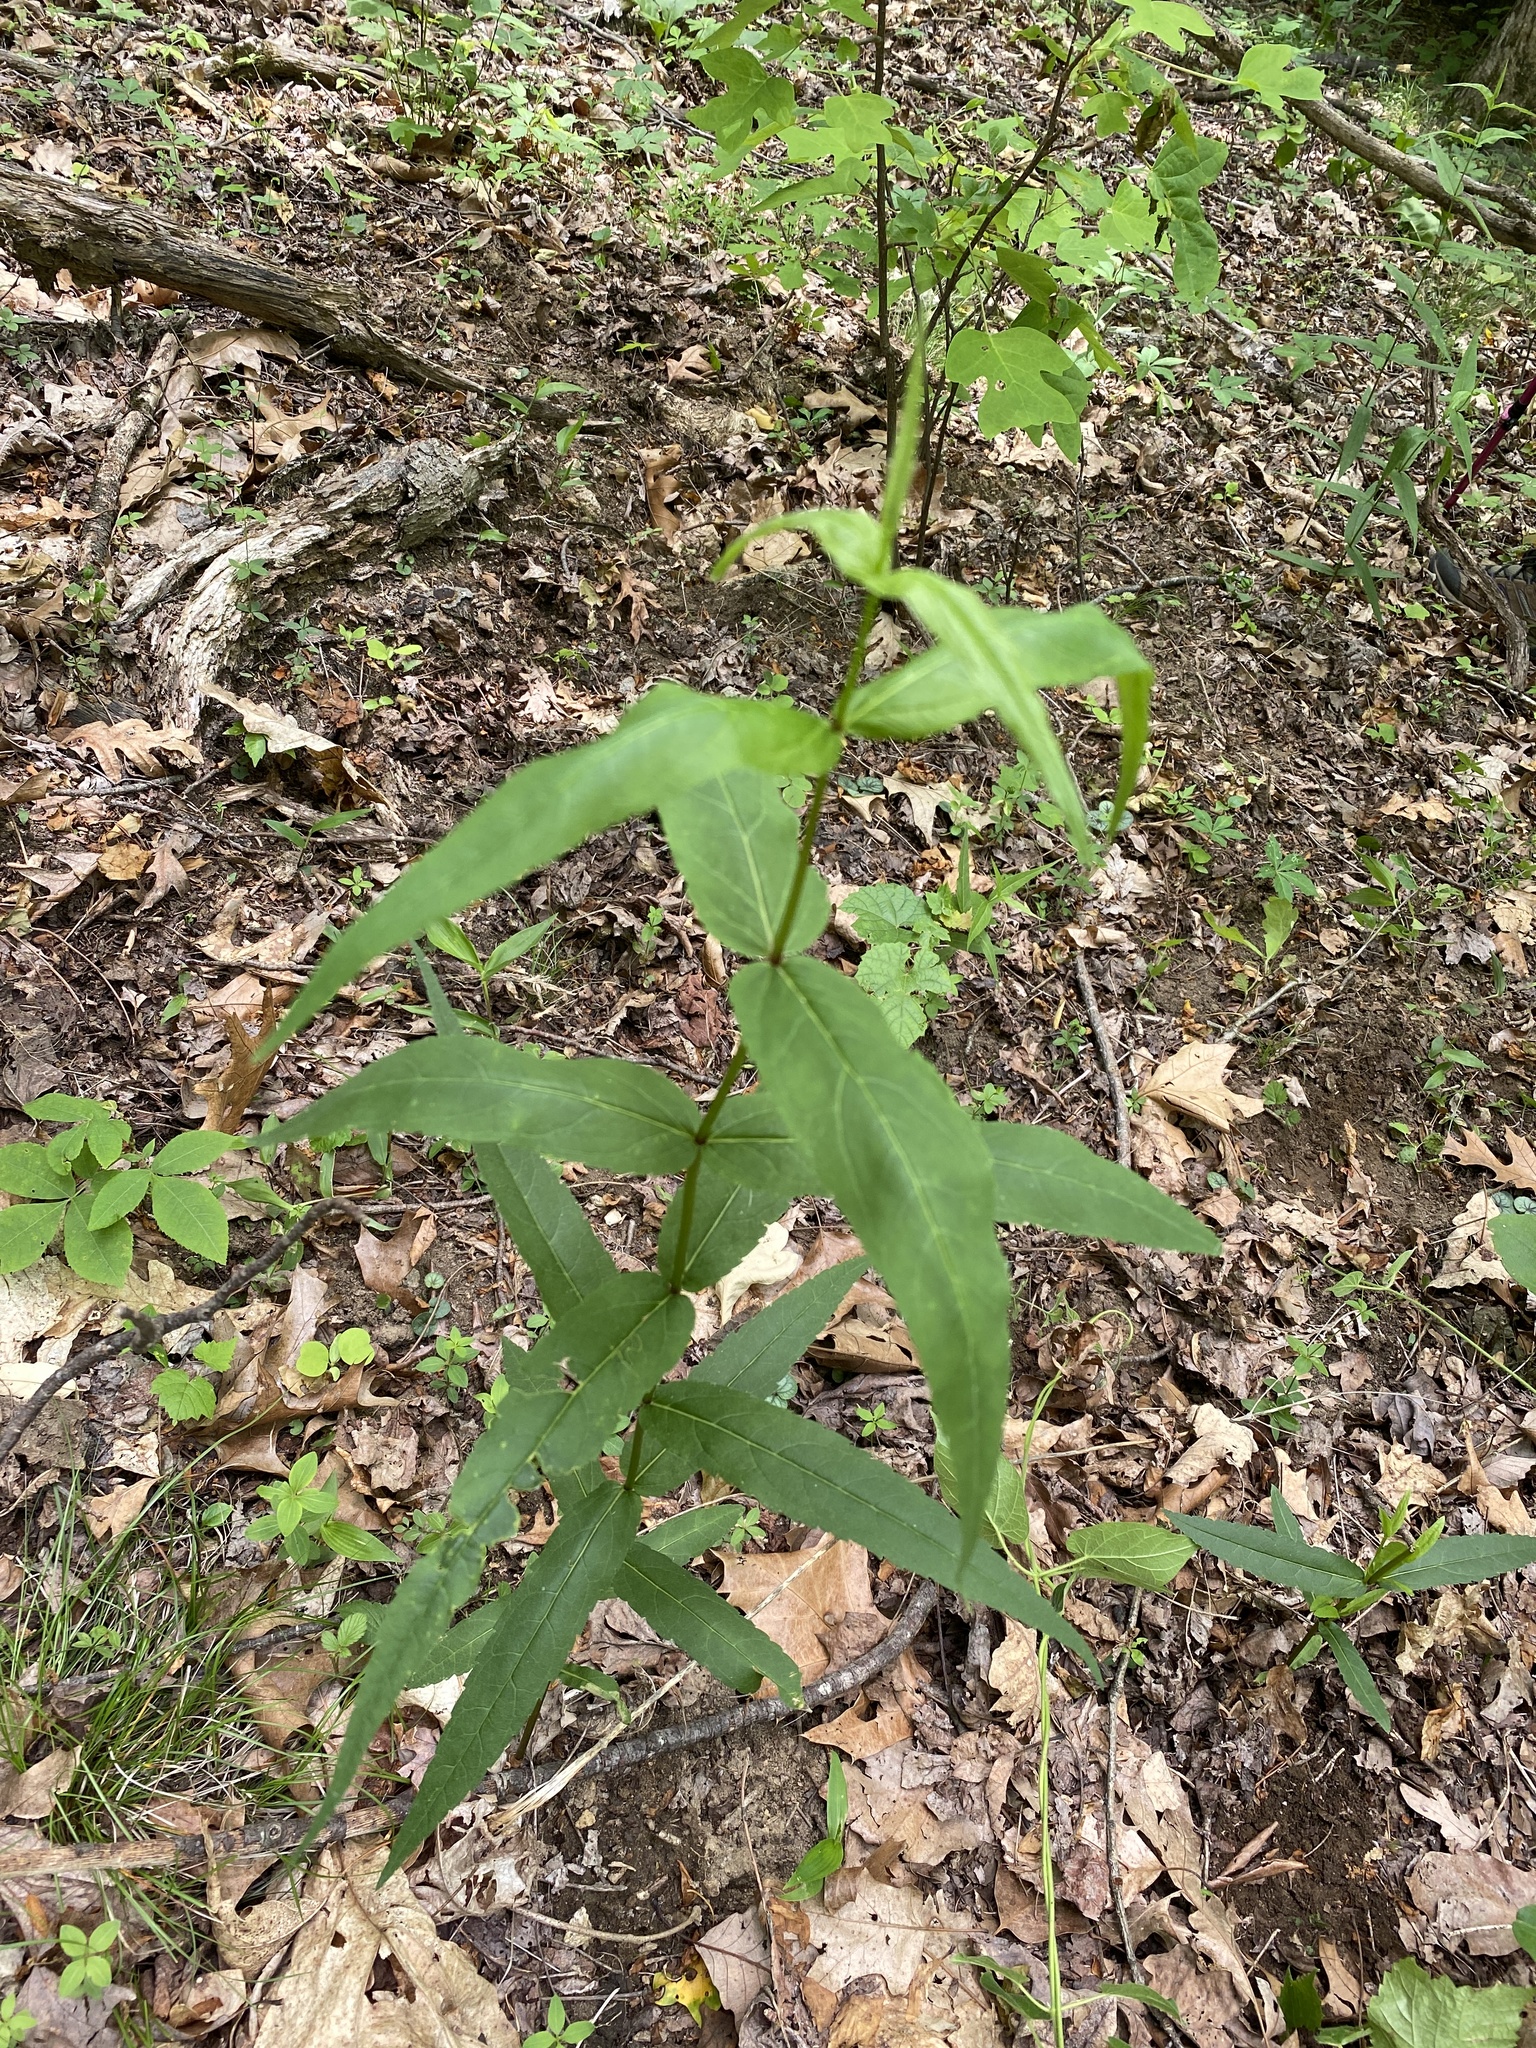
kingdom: Plantae
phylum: Tracheophyta
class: Magnoliopsida
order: Asterales
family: Asteraceae
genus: Eupatorium
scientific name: Eupatorium sessilifolium
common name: Upland boneset
